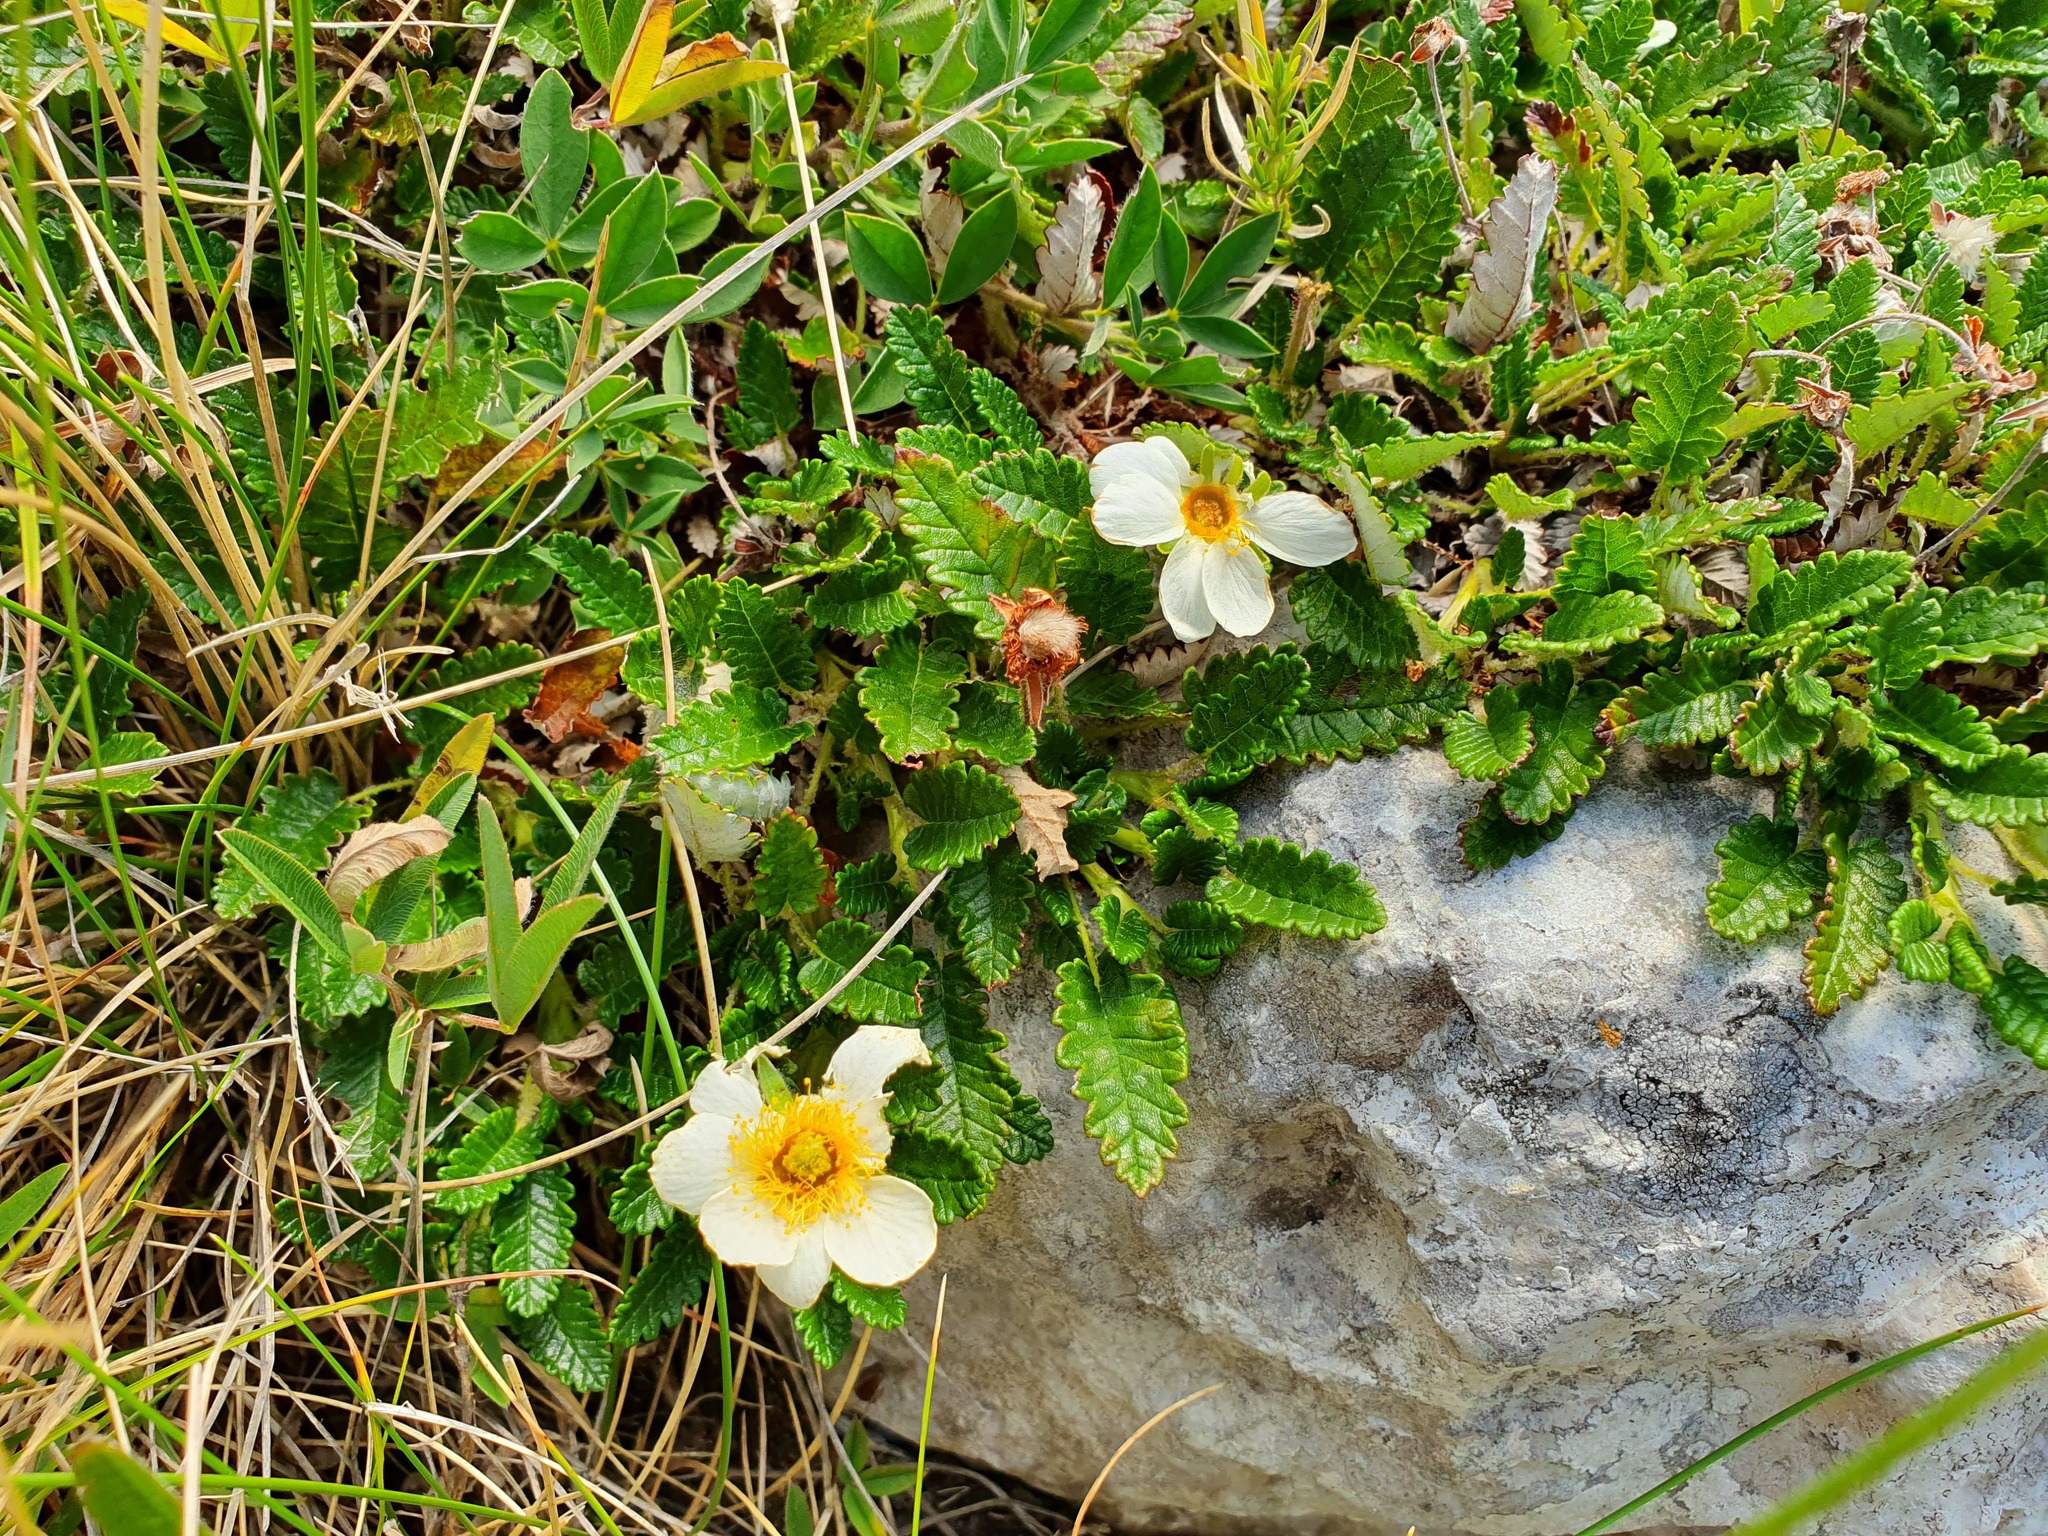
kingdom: Plantae
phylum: Tracheophyta
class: Magnoliopsida
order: Rosales
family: Rosaceae
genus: Dryas
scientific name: Dryas octopetala
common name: Eight-petal mountain-avens
